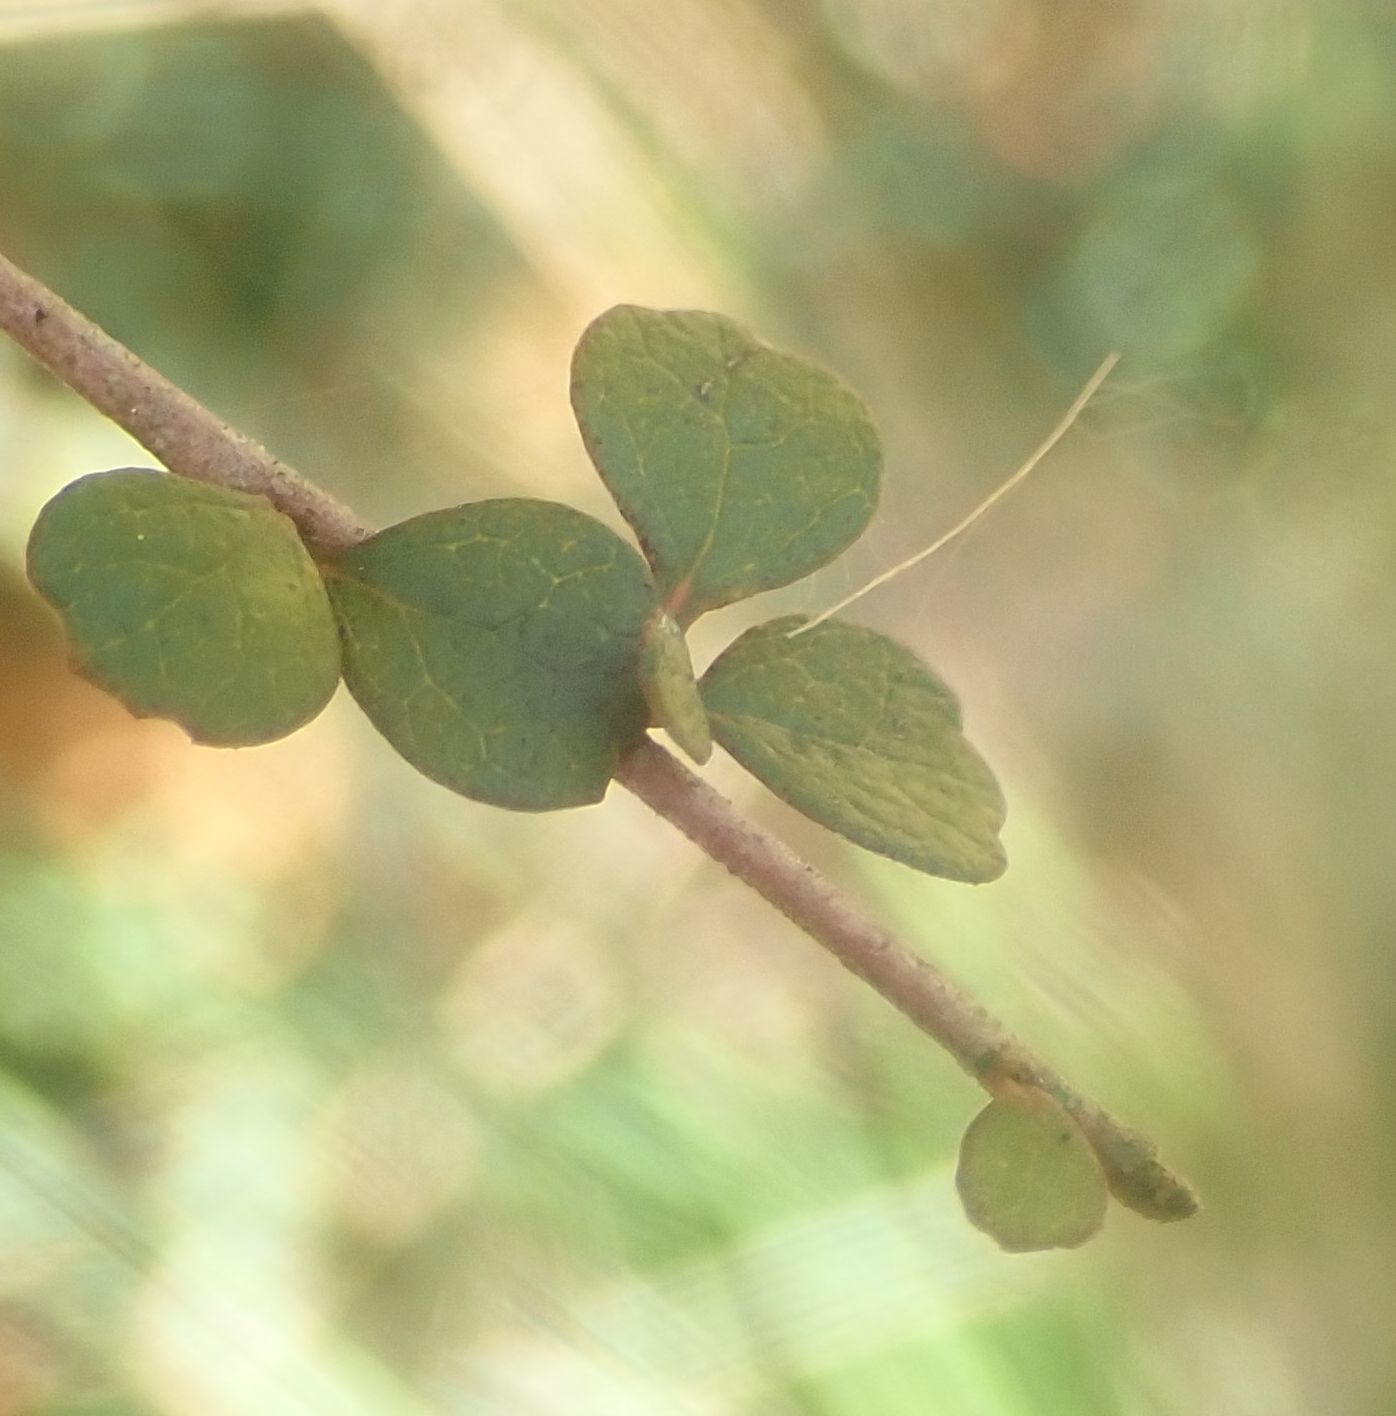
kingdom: Plantae
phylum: Tracheophyta
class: Magnoliopsida
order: Ericales
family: Primulaceae
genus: Myrsine
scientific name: Myrsine divaricata
